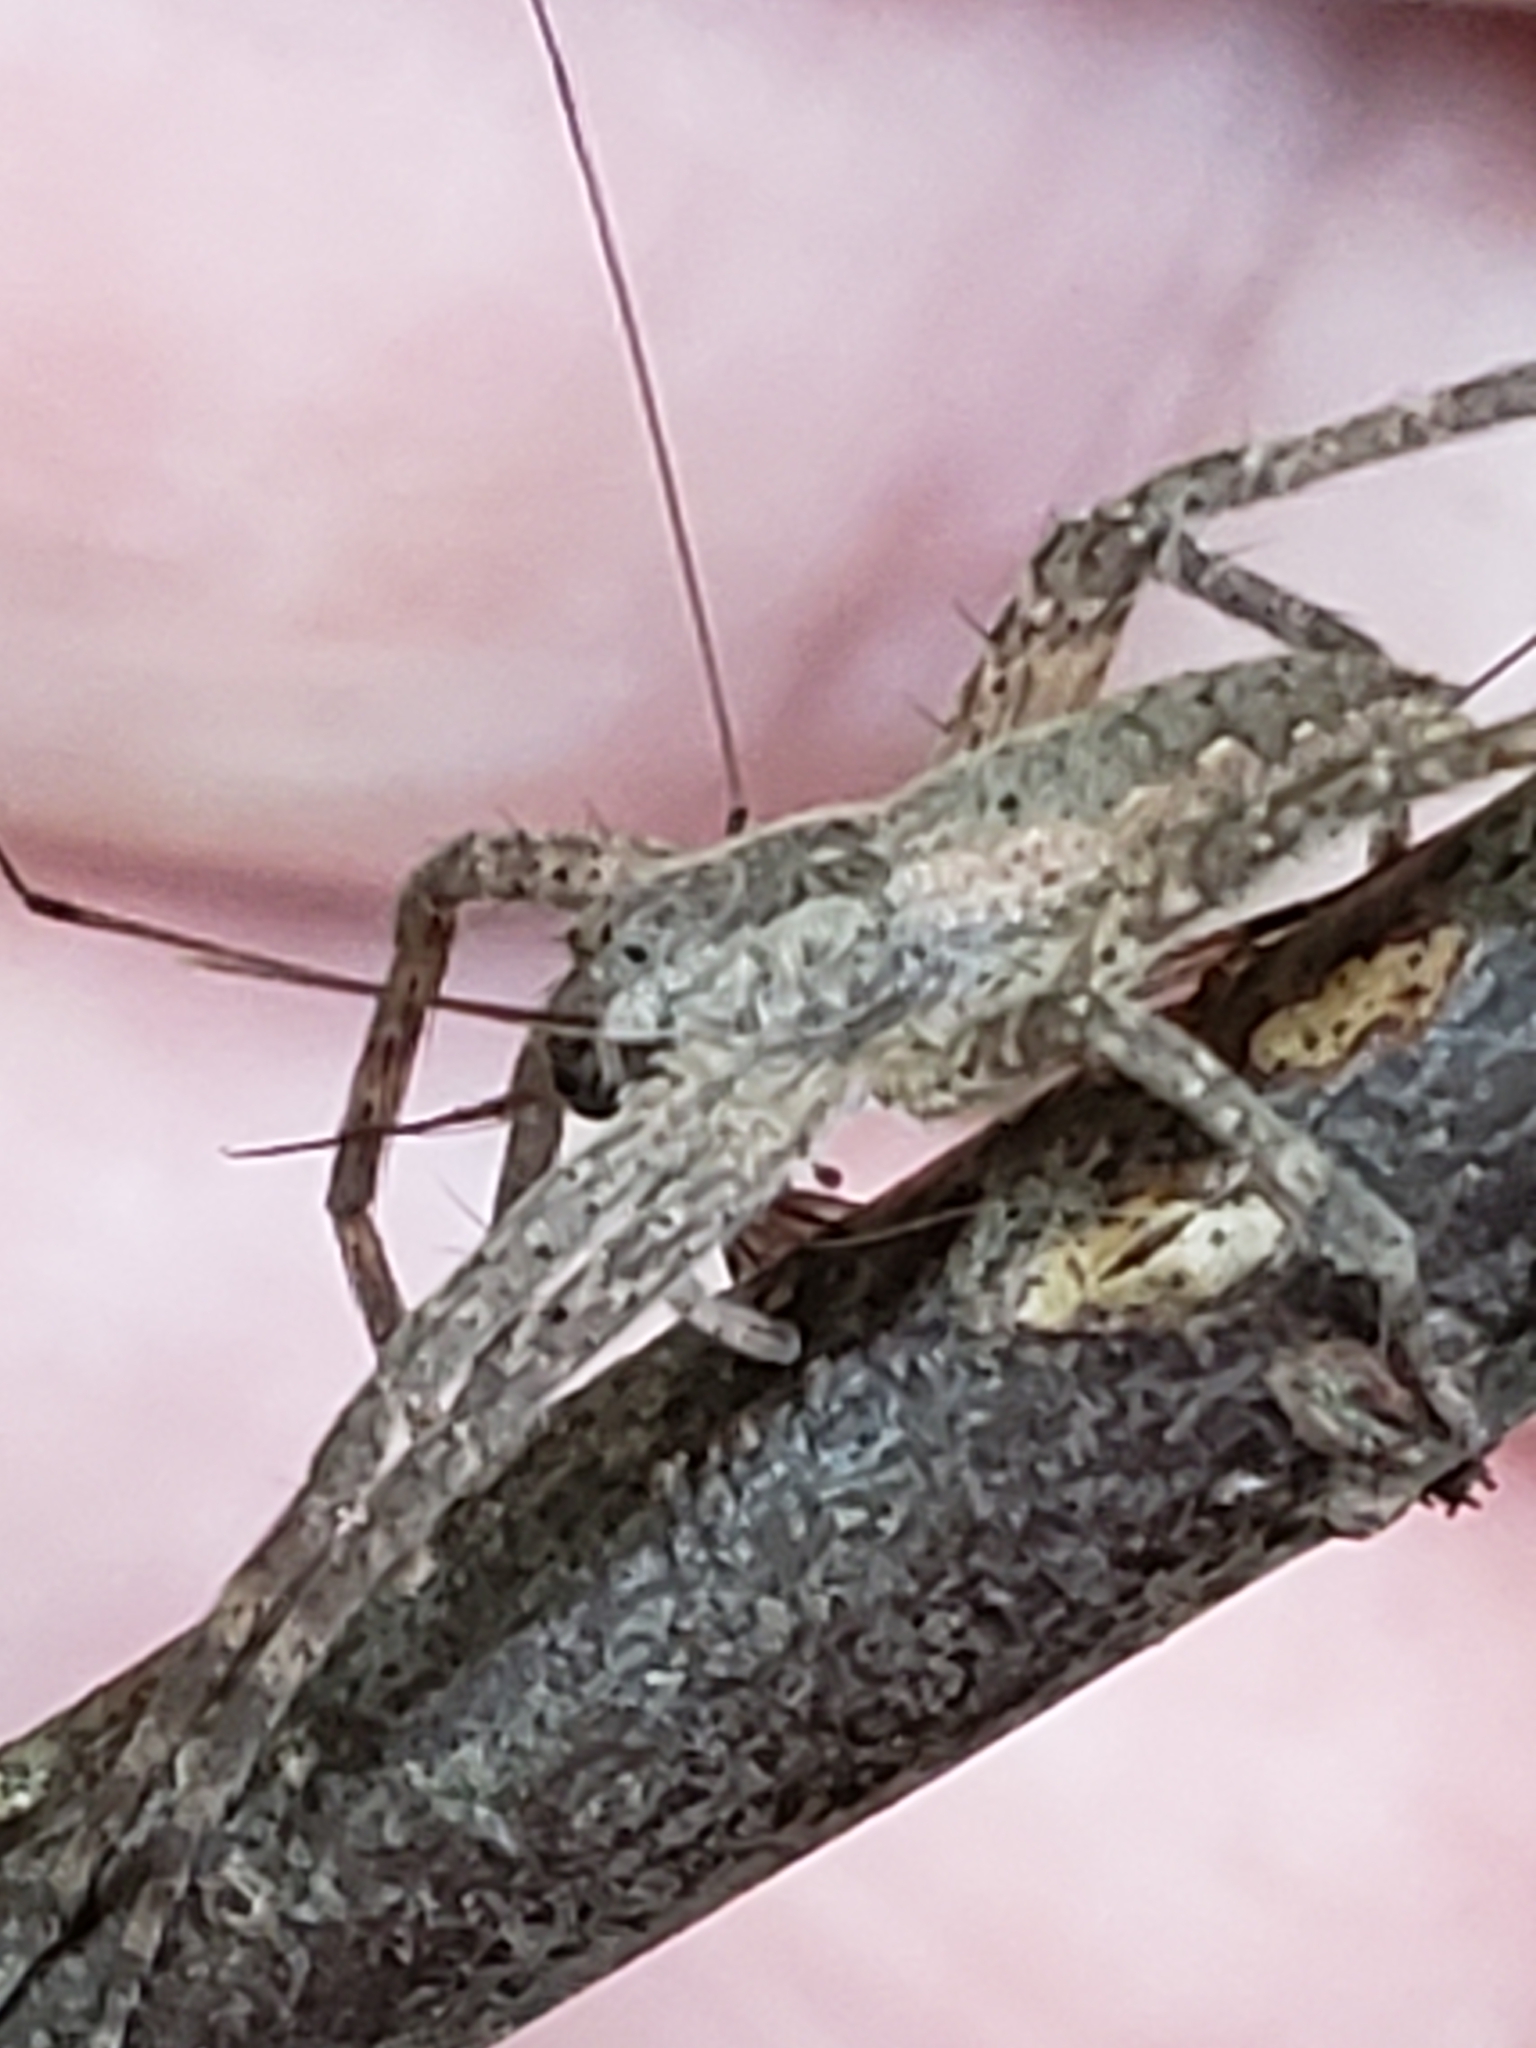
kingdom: Animalia
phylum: Arthropoda
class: Arachnida
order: Araneae
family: Pisauridae
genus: Pisaurina
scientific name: Pisaurina mira
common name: American nursery web spider
